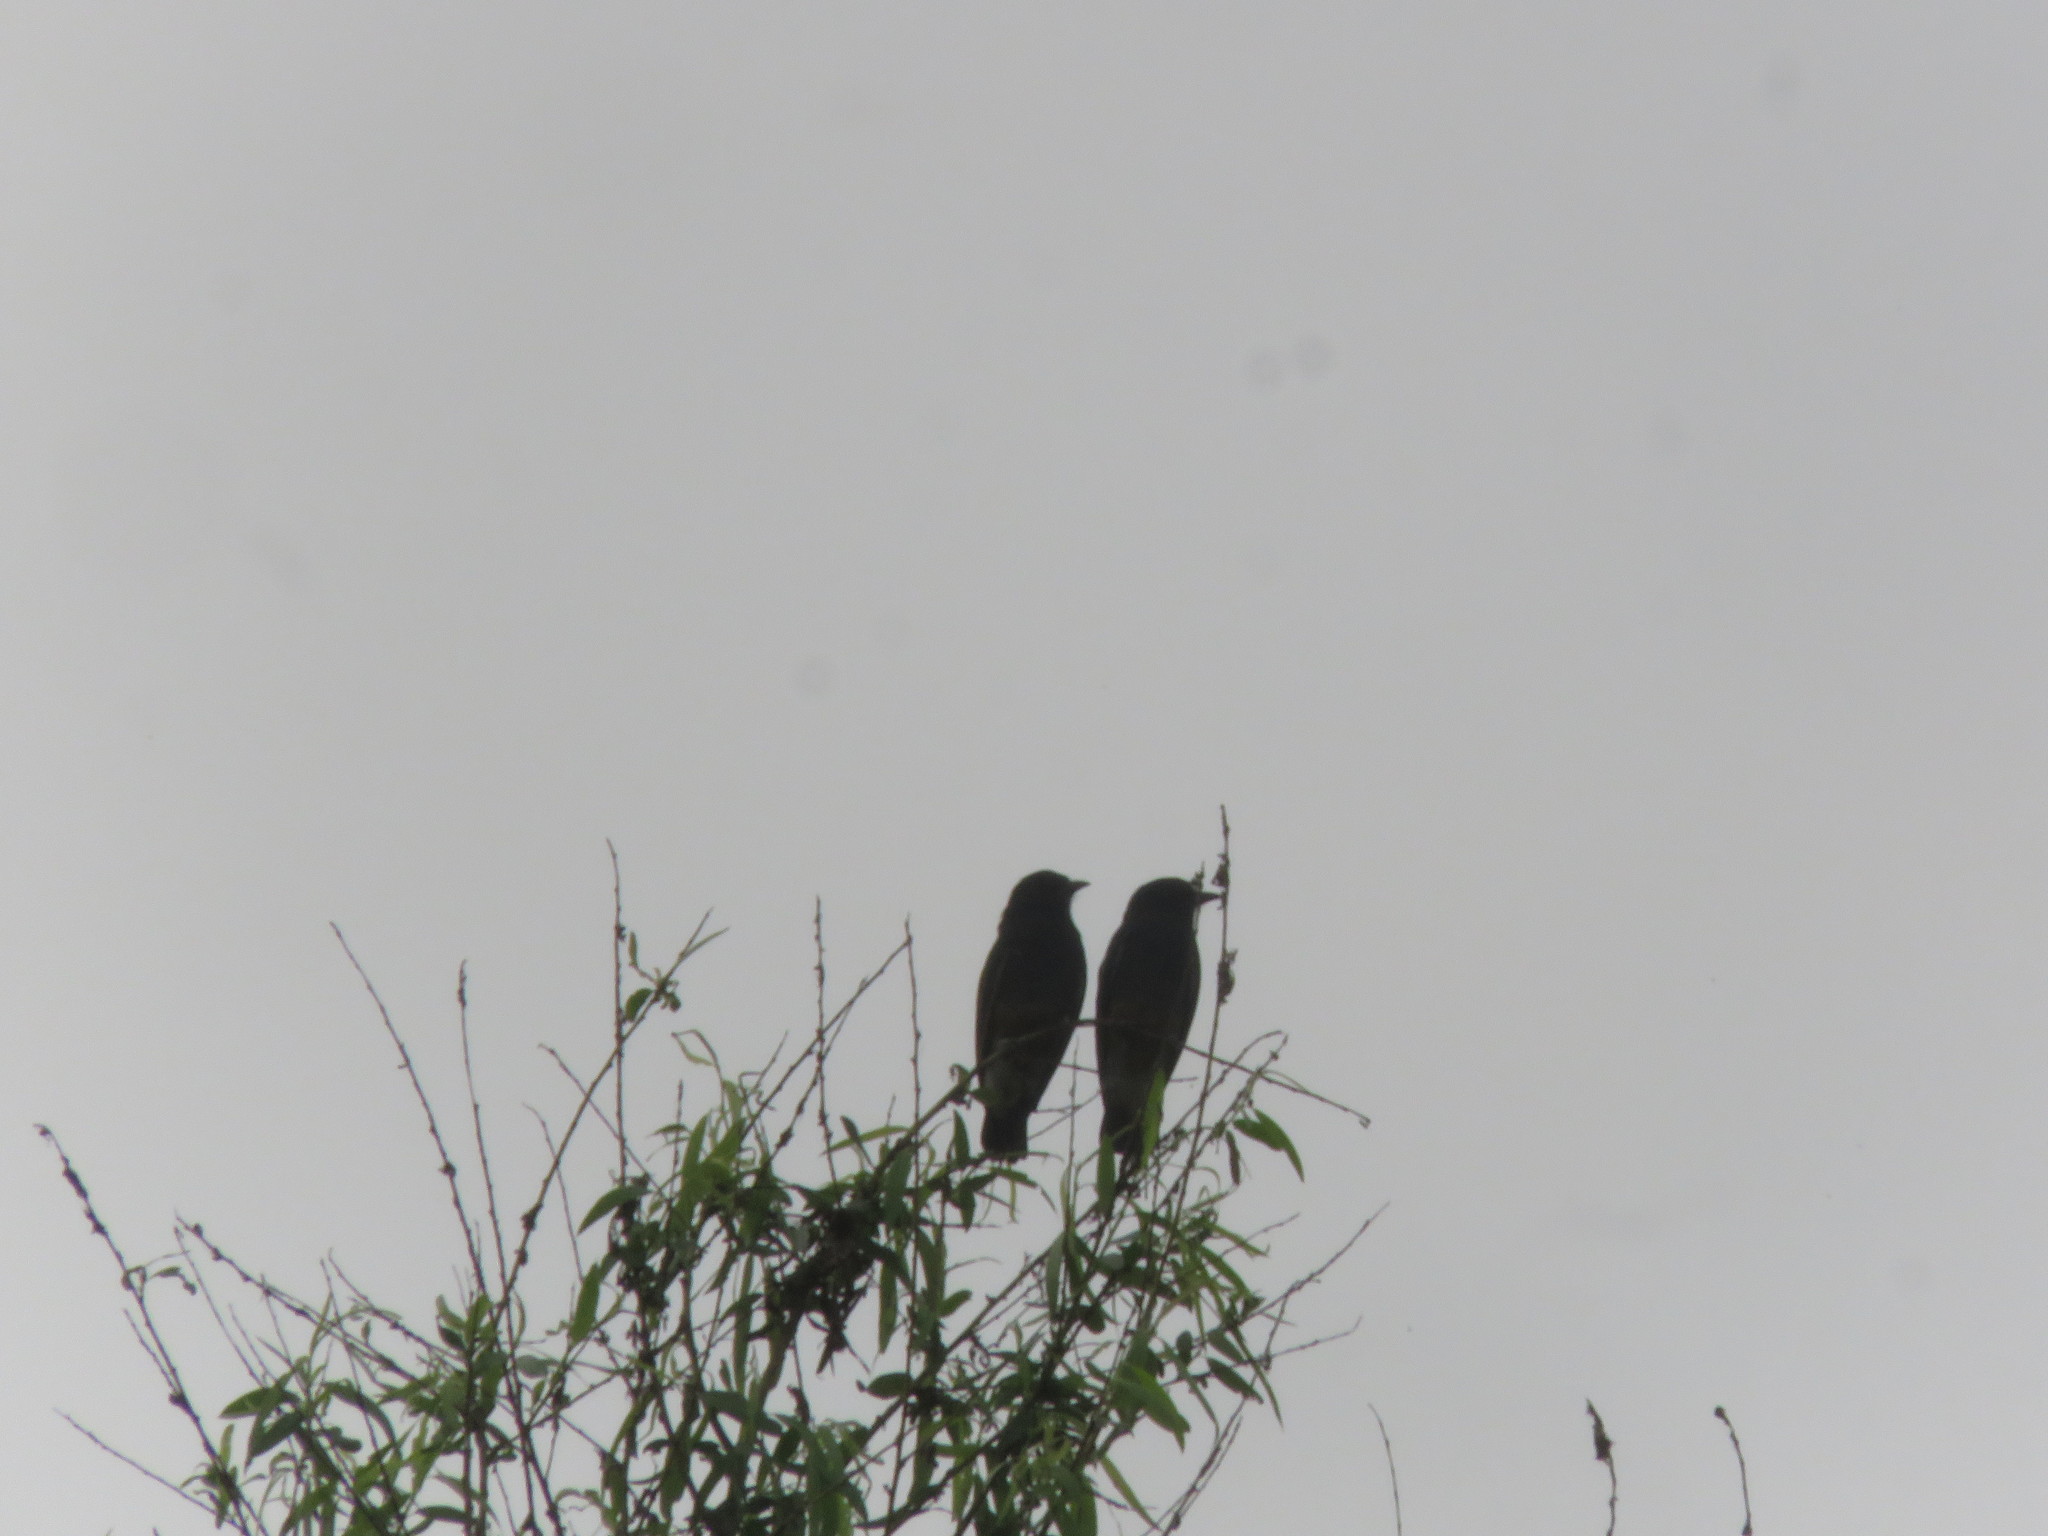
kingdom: Animalia
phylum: Chordata
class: Aves
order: Piciformes
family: Bucconidae
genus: Chelidoptera
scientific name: Chelidoptera tenebrosa
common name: Swallow-winged puffbird
